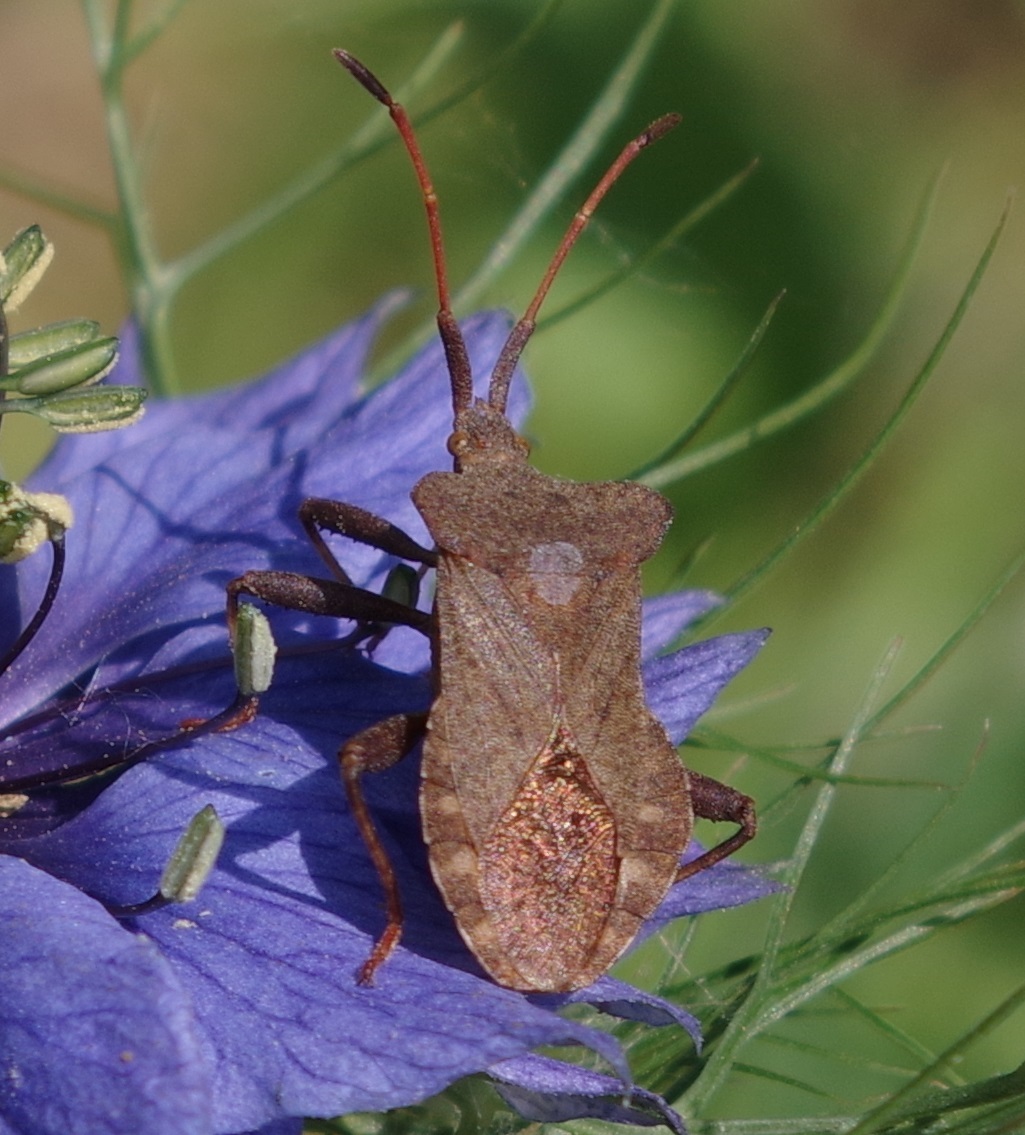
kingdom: Animalia
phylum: Arthropoda
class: Insecta
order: Hemiptera
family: Coreidae
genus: Coreus
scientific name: Coreus marginatus
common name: Dock bug
